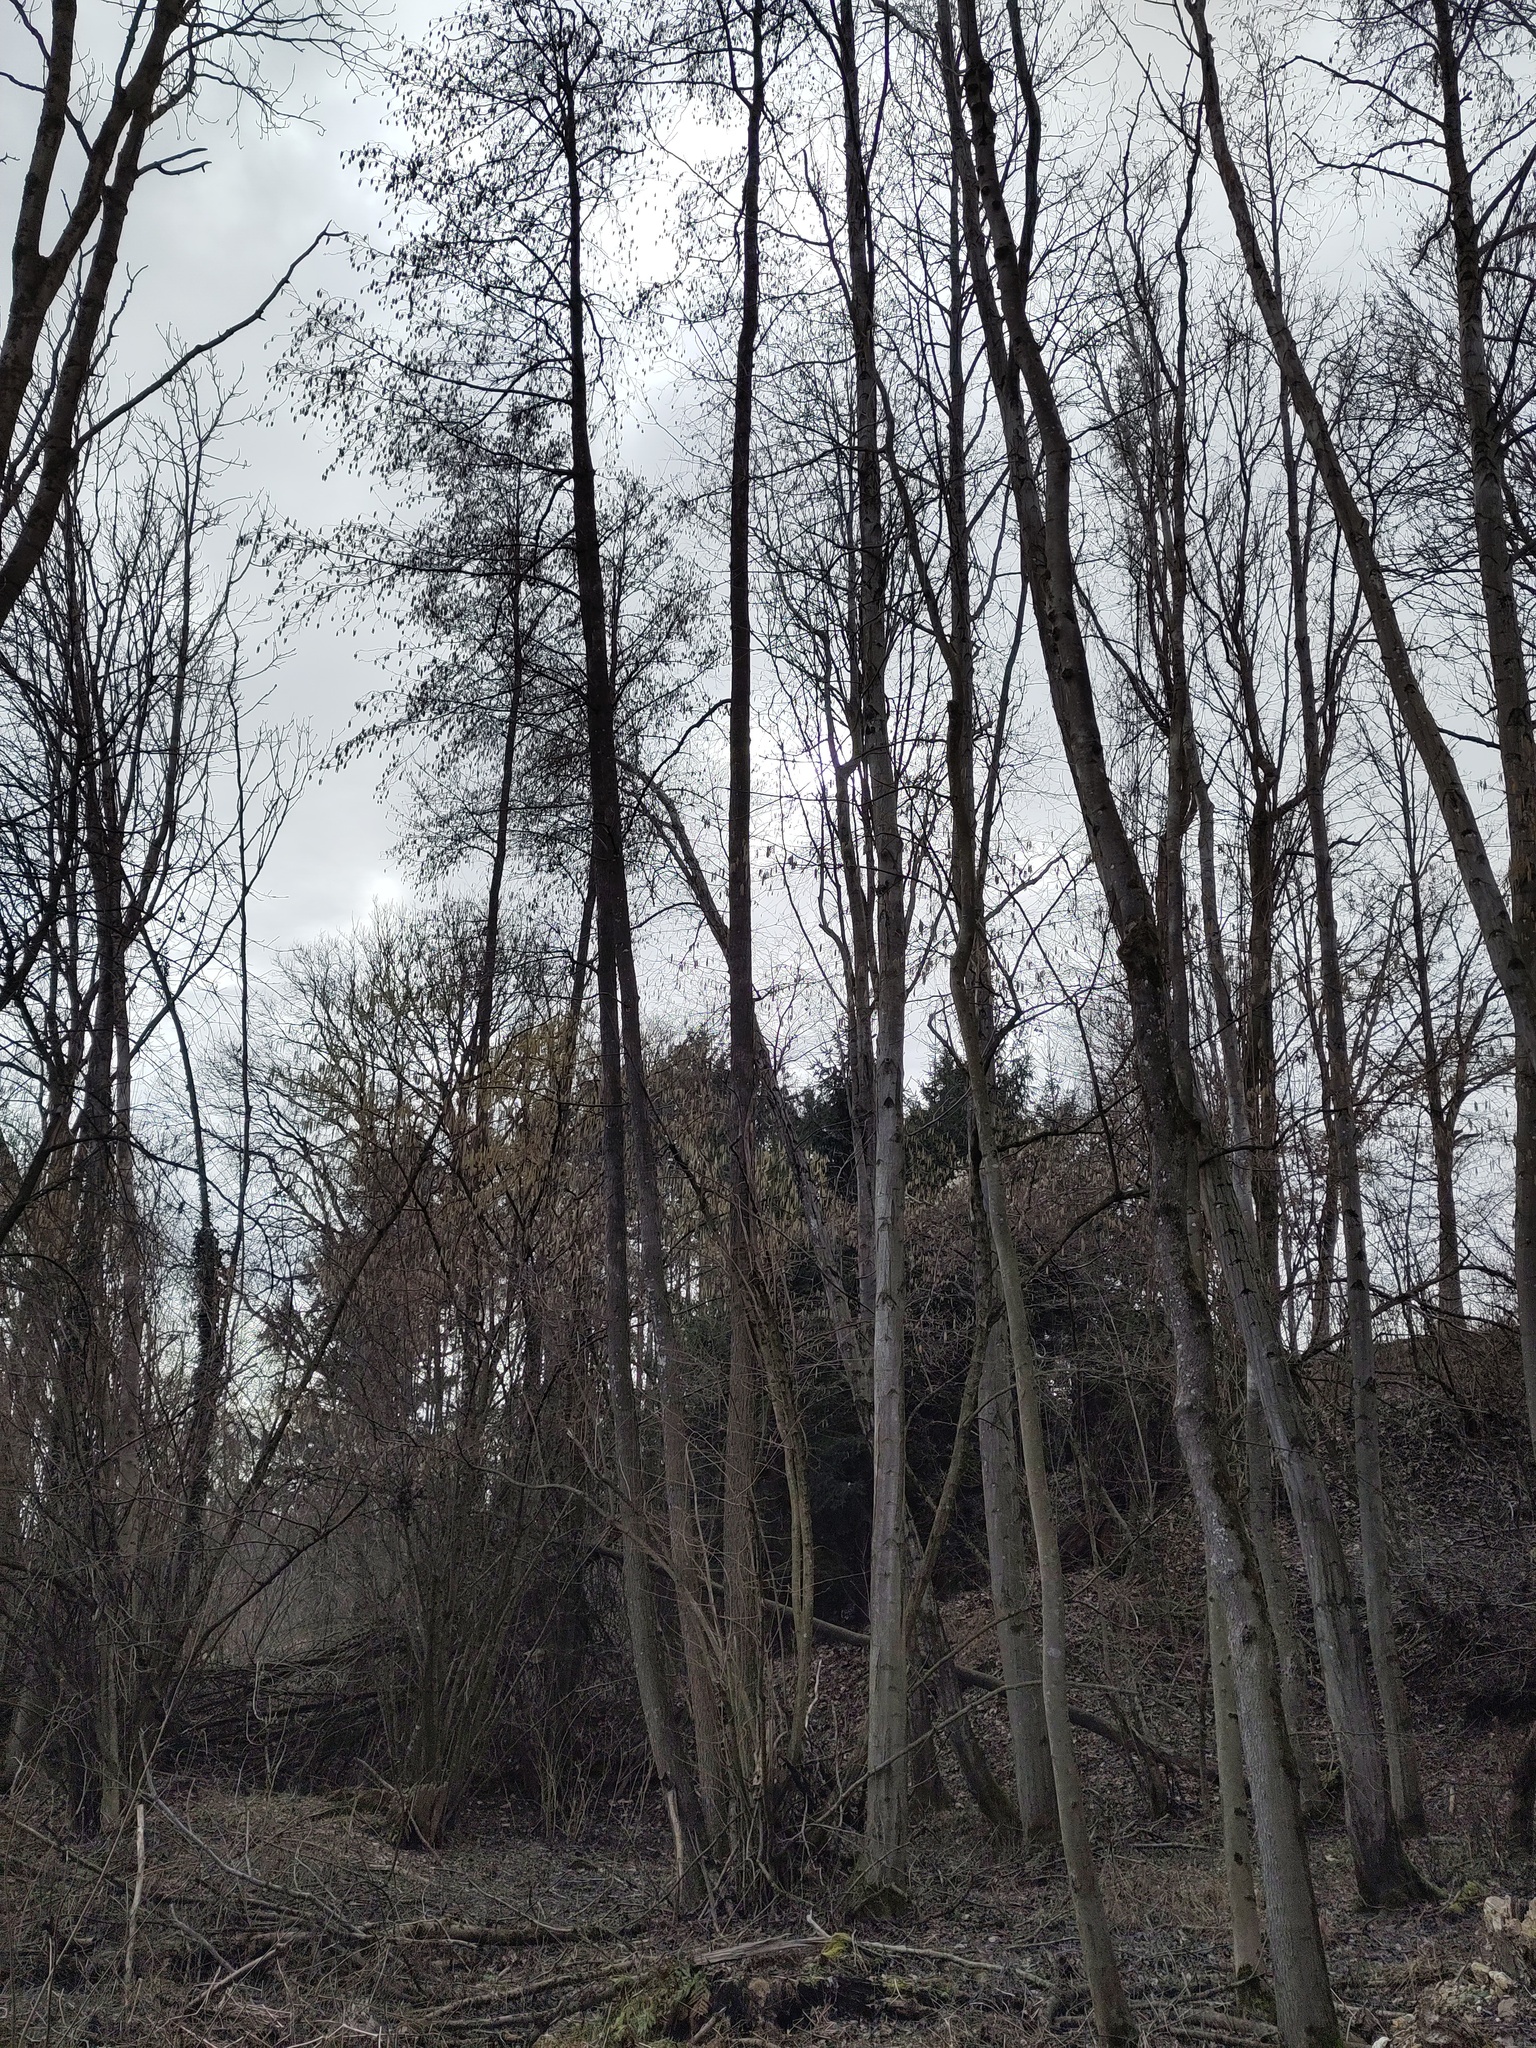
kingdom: Plantae
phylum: Tracheophyta
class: Magnoliopsida
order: Fagales
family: Betulaceae
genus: Alnus
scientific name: Alnus glutinosa
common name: Black alder
